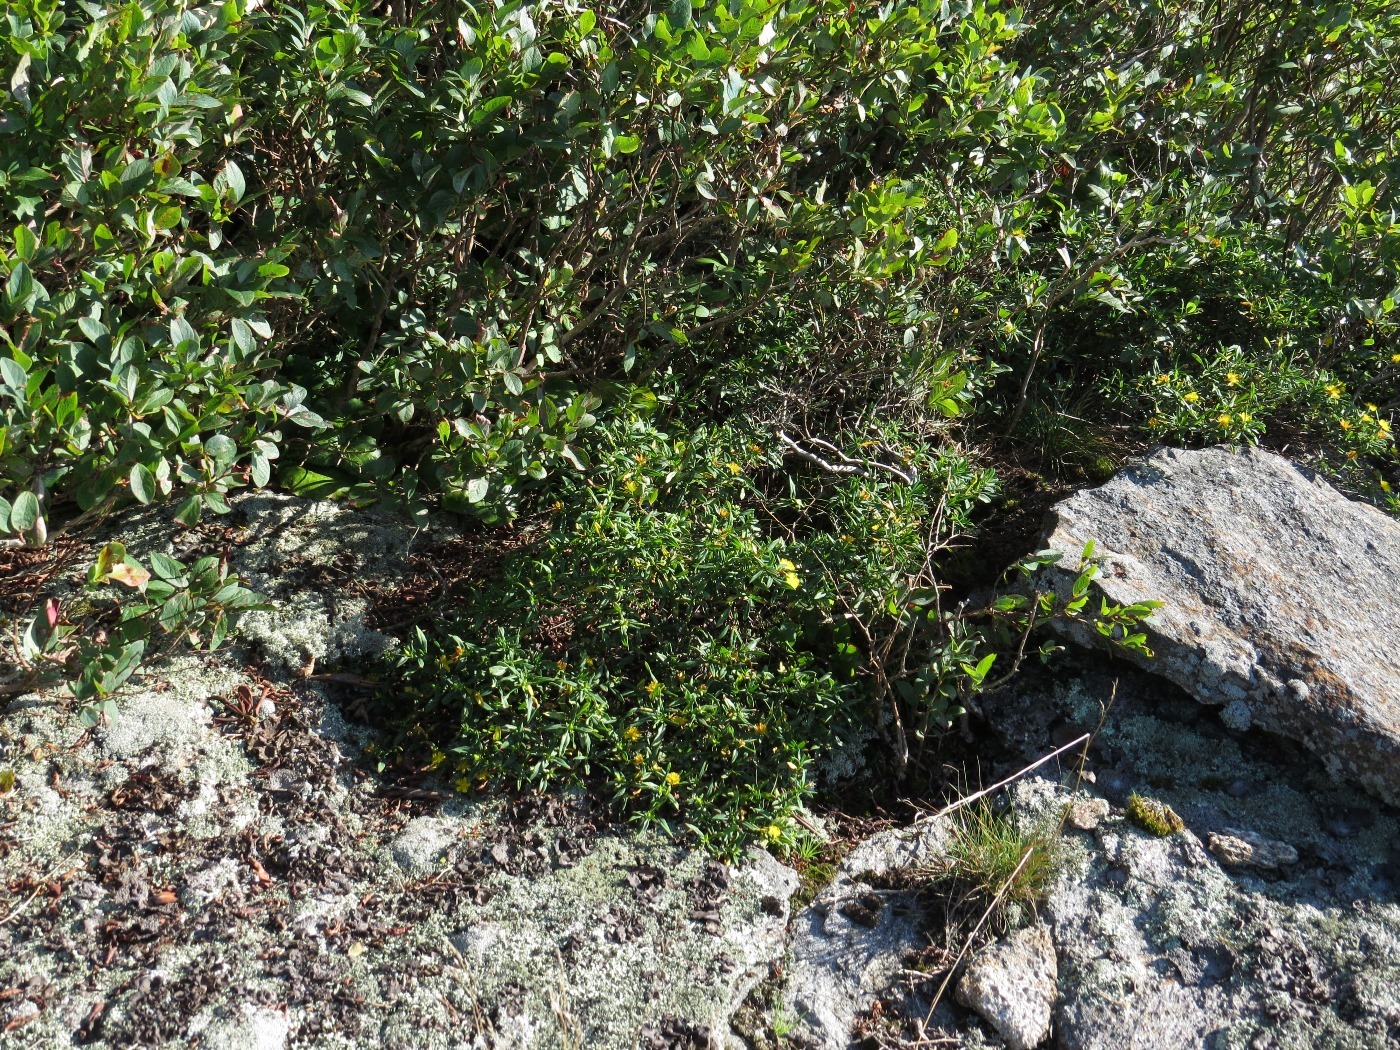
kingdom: Plantae
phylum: Tracheophyta
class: Magnoliopsida
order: Malpighiales
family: Hypericaceae
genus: Hypericum
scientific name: Hypericum prolificum
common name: Shrubby st. john's-wort
